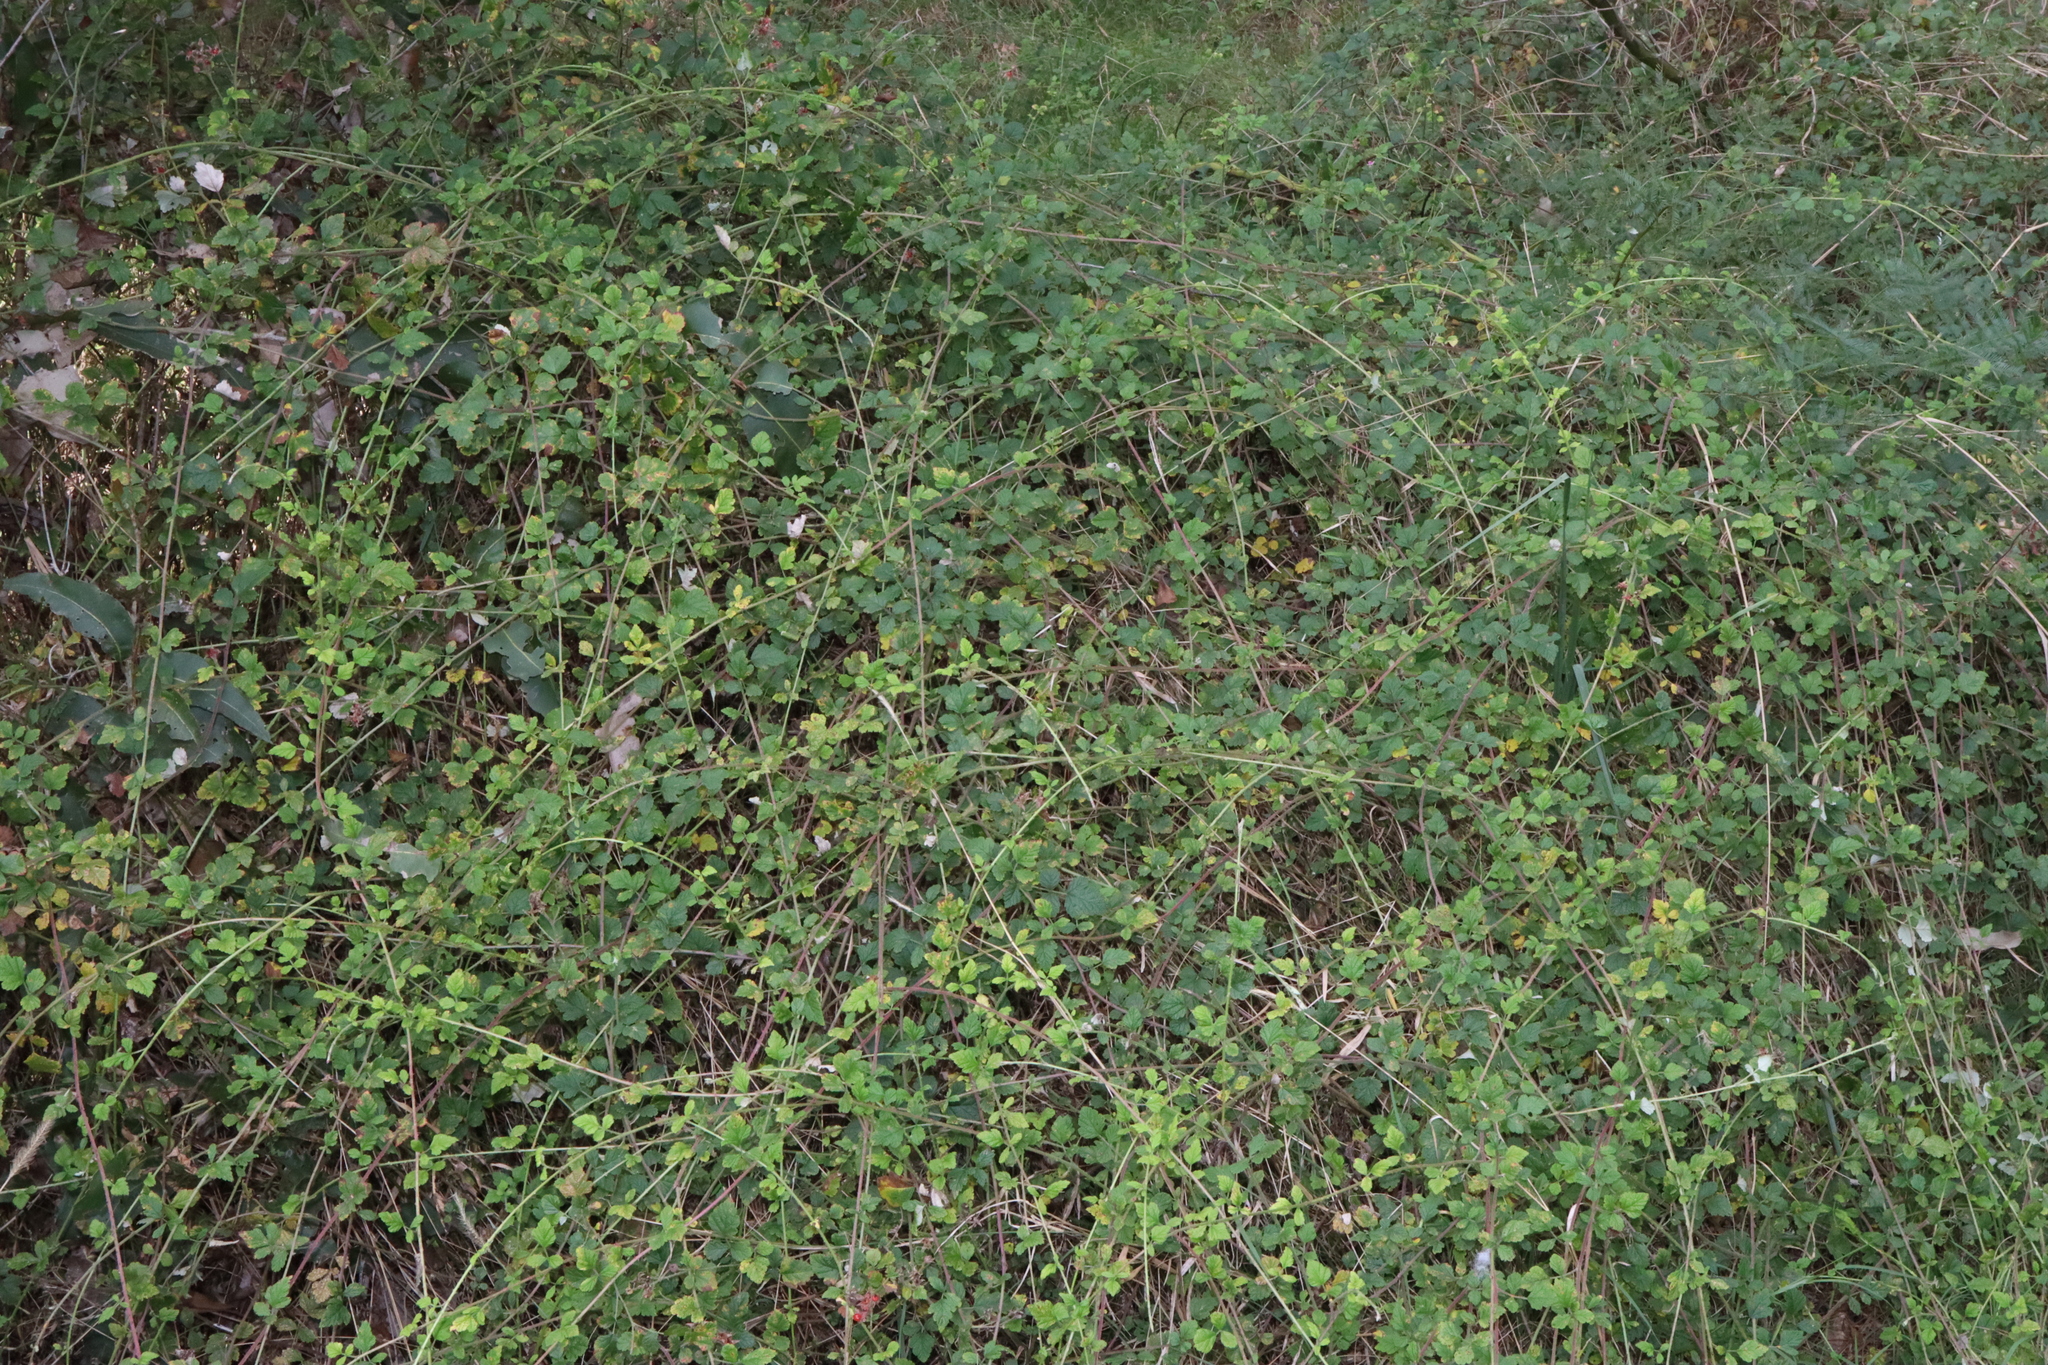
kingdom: Plantae
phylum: Tracheophyta
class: Magnoliopsida
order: Rosales
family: Rosaceae
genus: Rubus
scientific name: Rubus parvifolius
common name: Threeleaf blackberry
